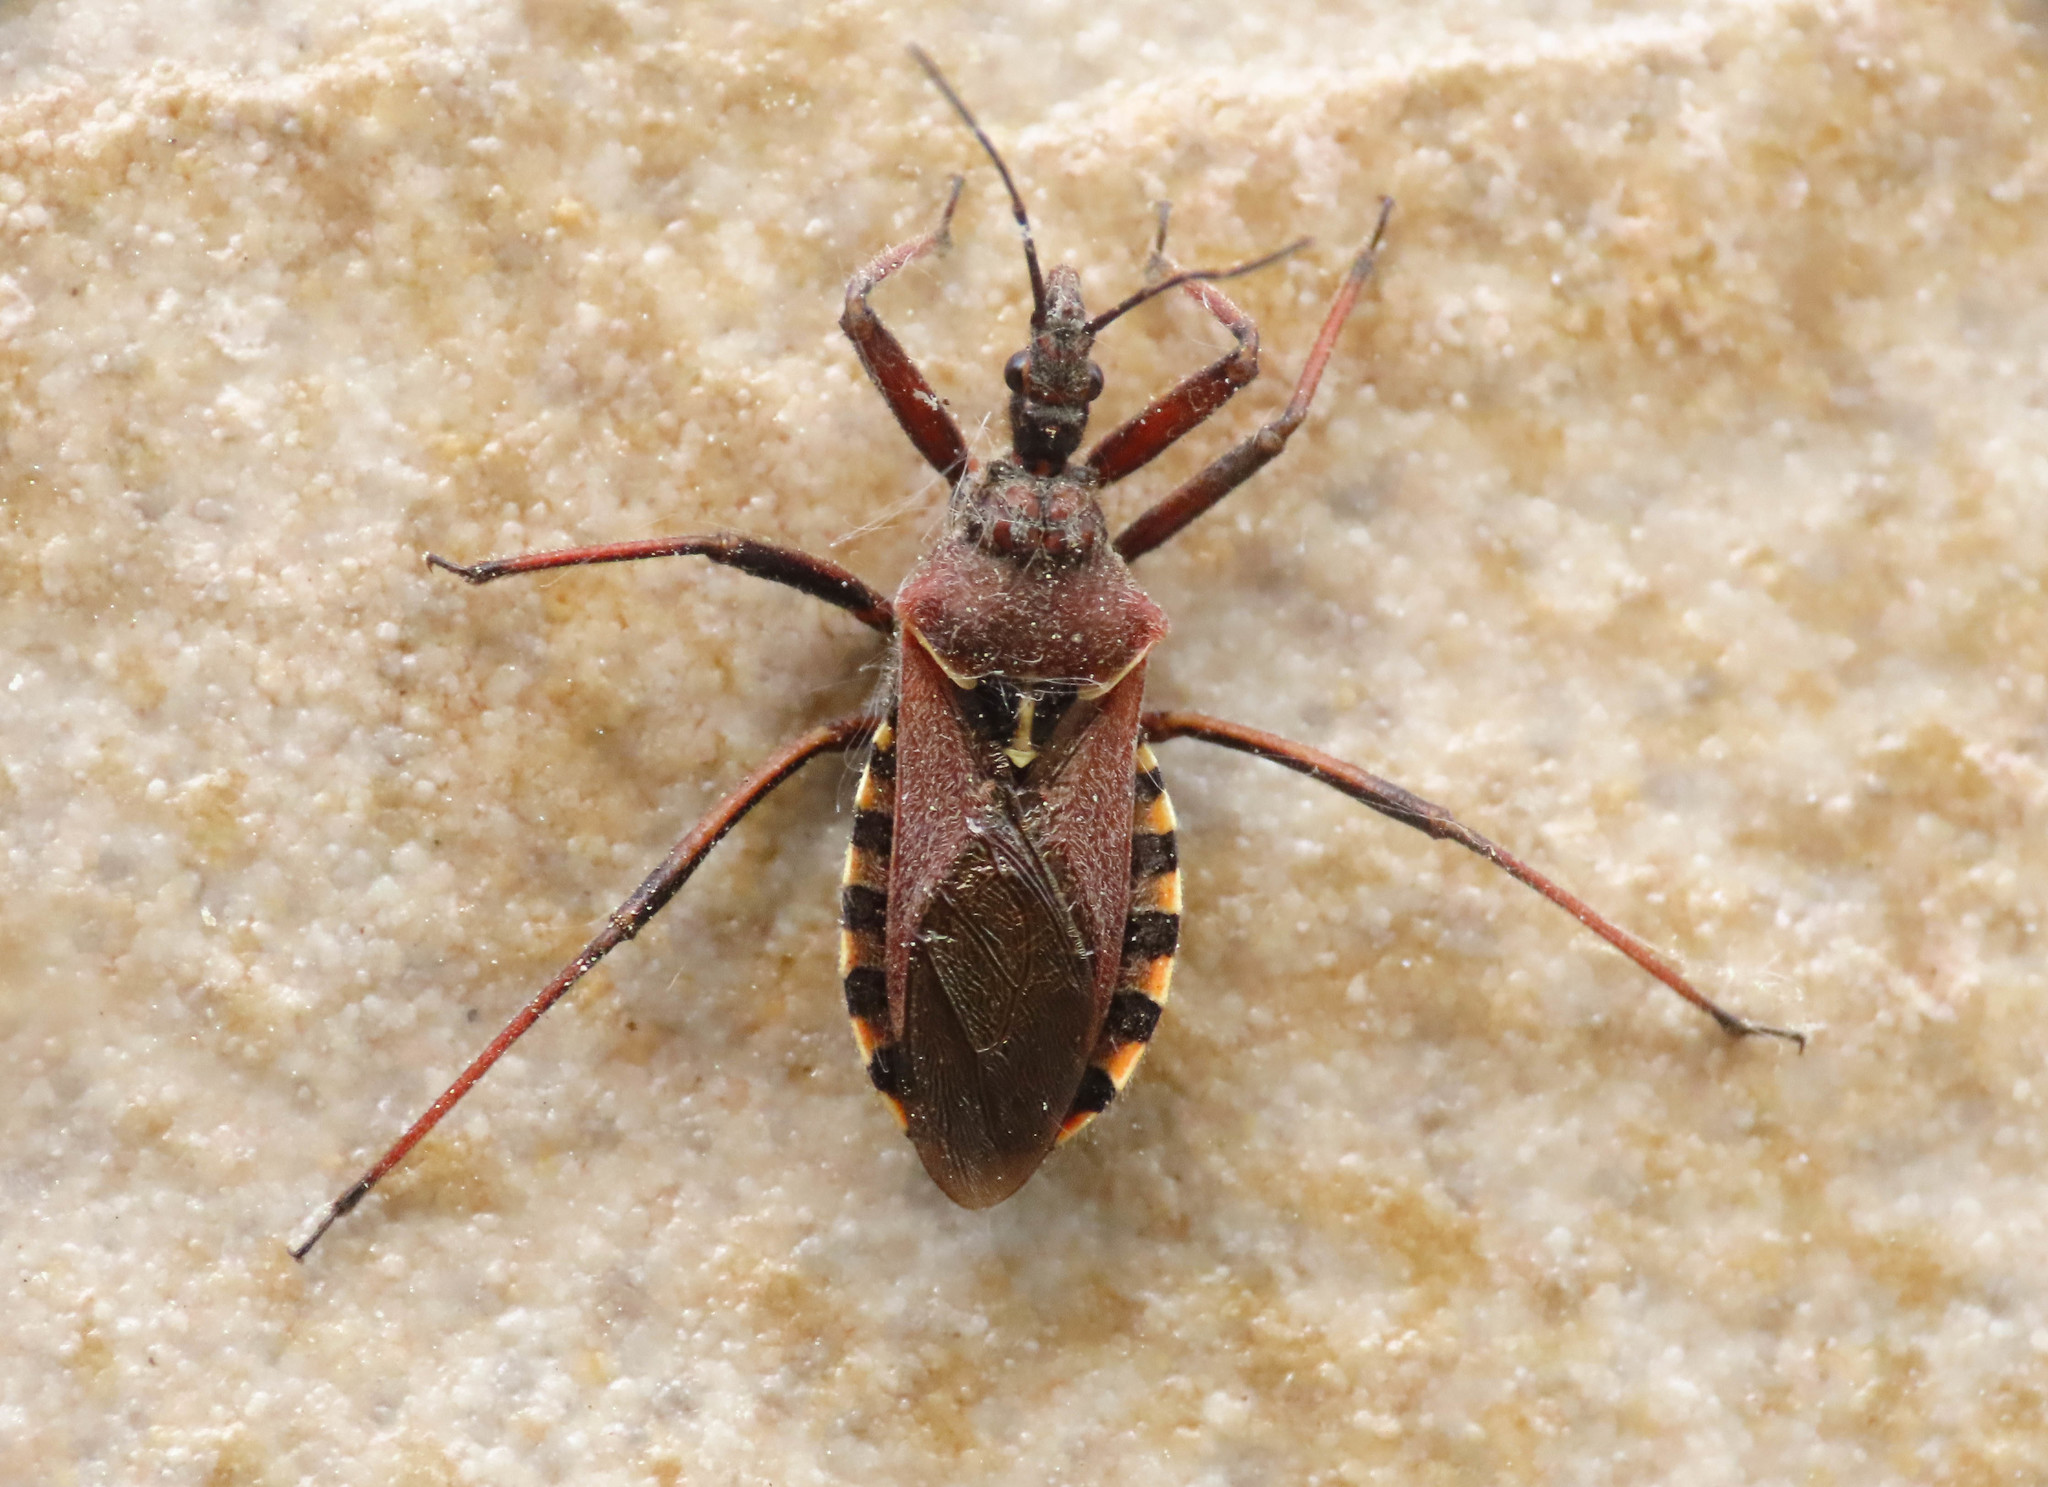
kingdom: Animalia
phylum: Arthropoda
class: Insecta
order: Hemiptera
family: Reduviidae
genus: Rhynocoris
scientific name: Rhynocoris erythropus
